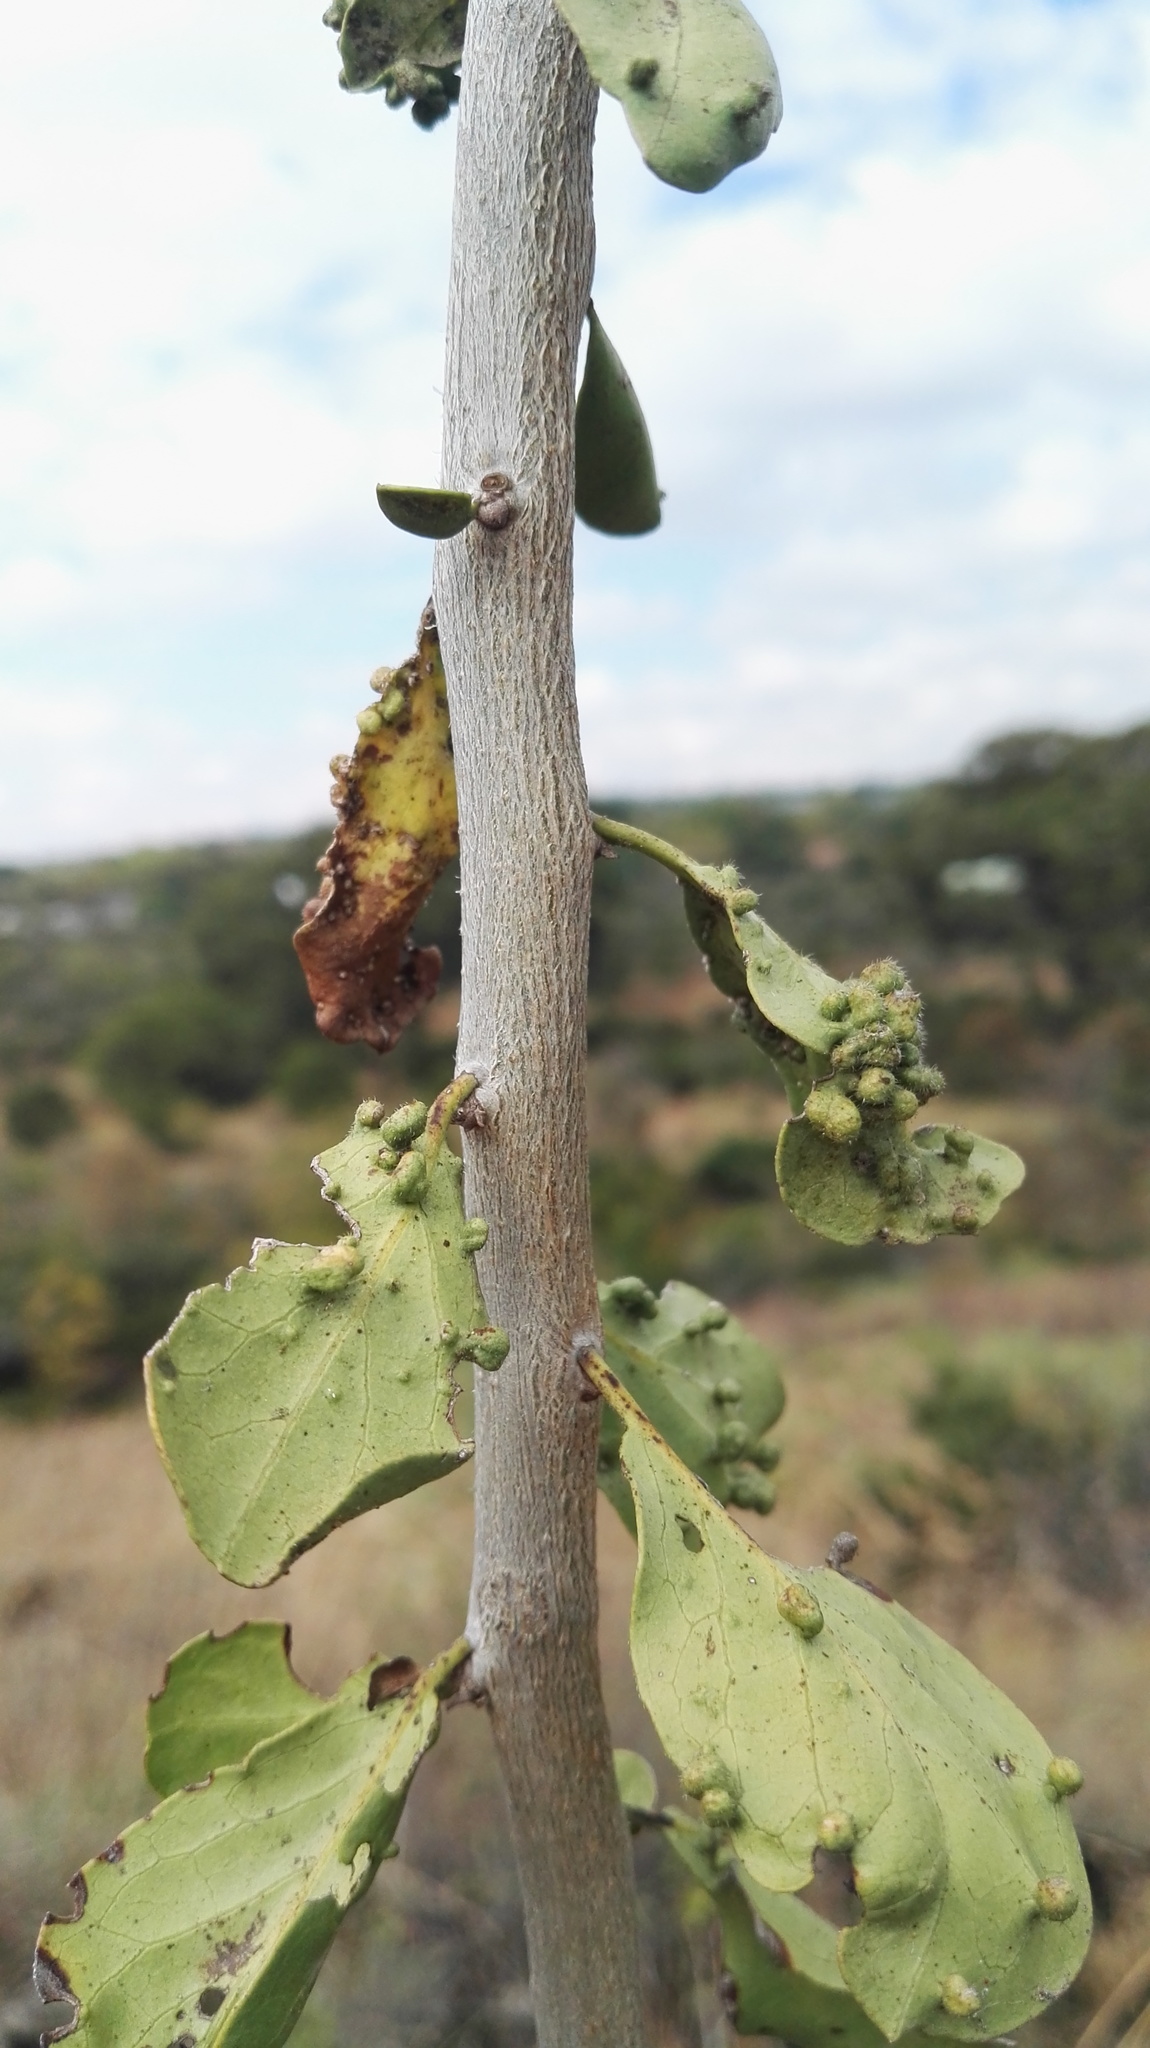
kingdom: Plantae
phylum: Tracheophyta
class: Magnoliopsida
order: Boraginales
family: Ehretiaceae
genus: Ehretia
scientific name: Ehretia rigida
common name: Cape lilac
